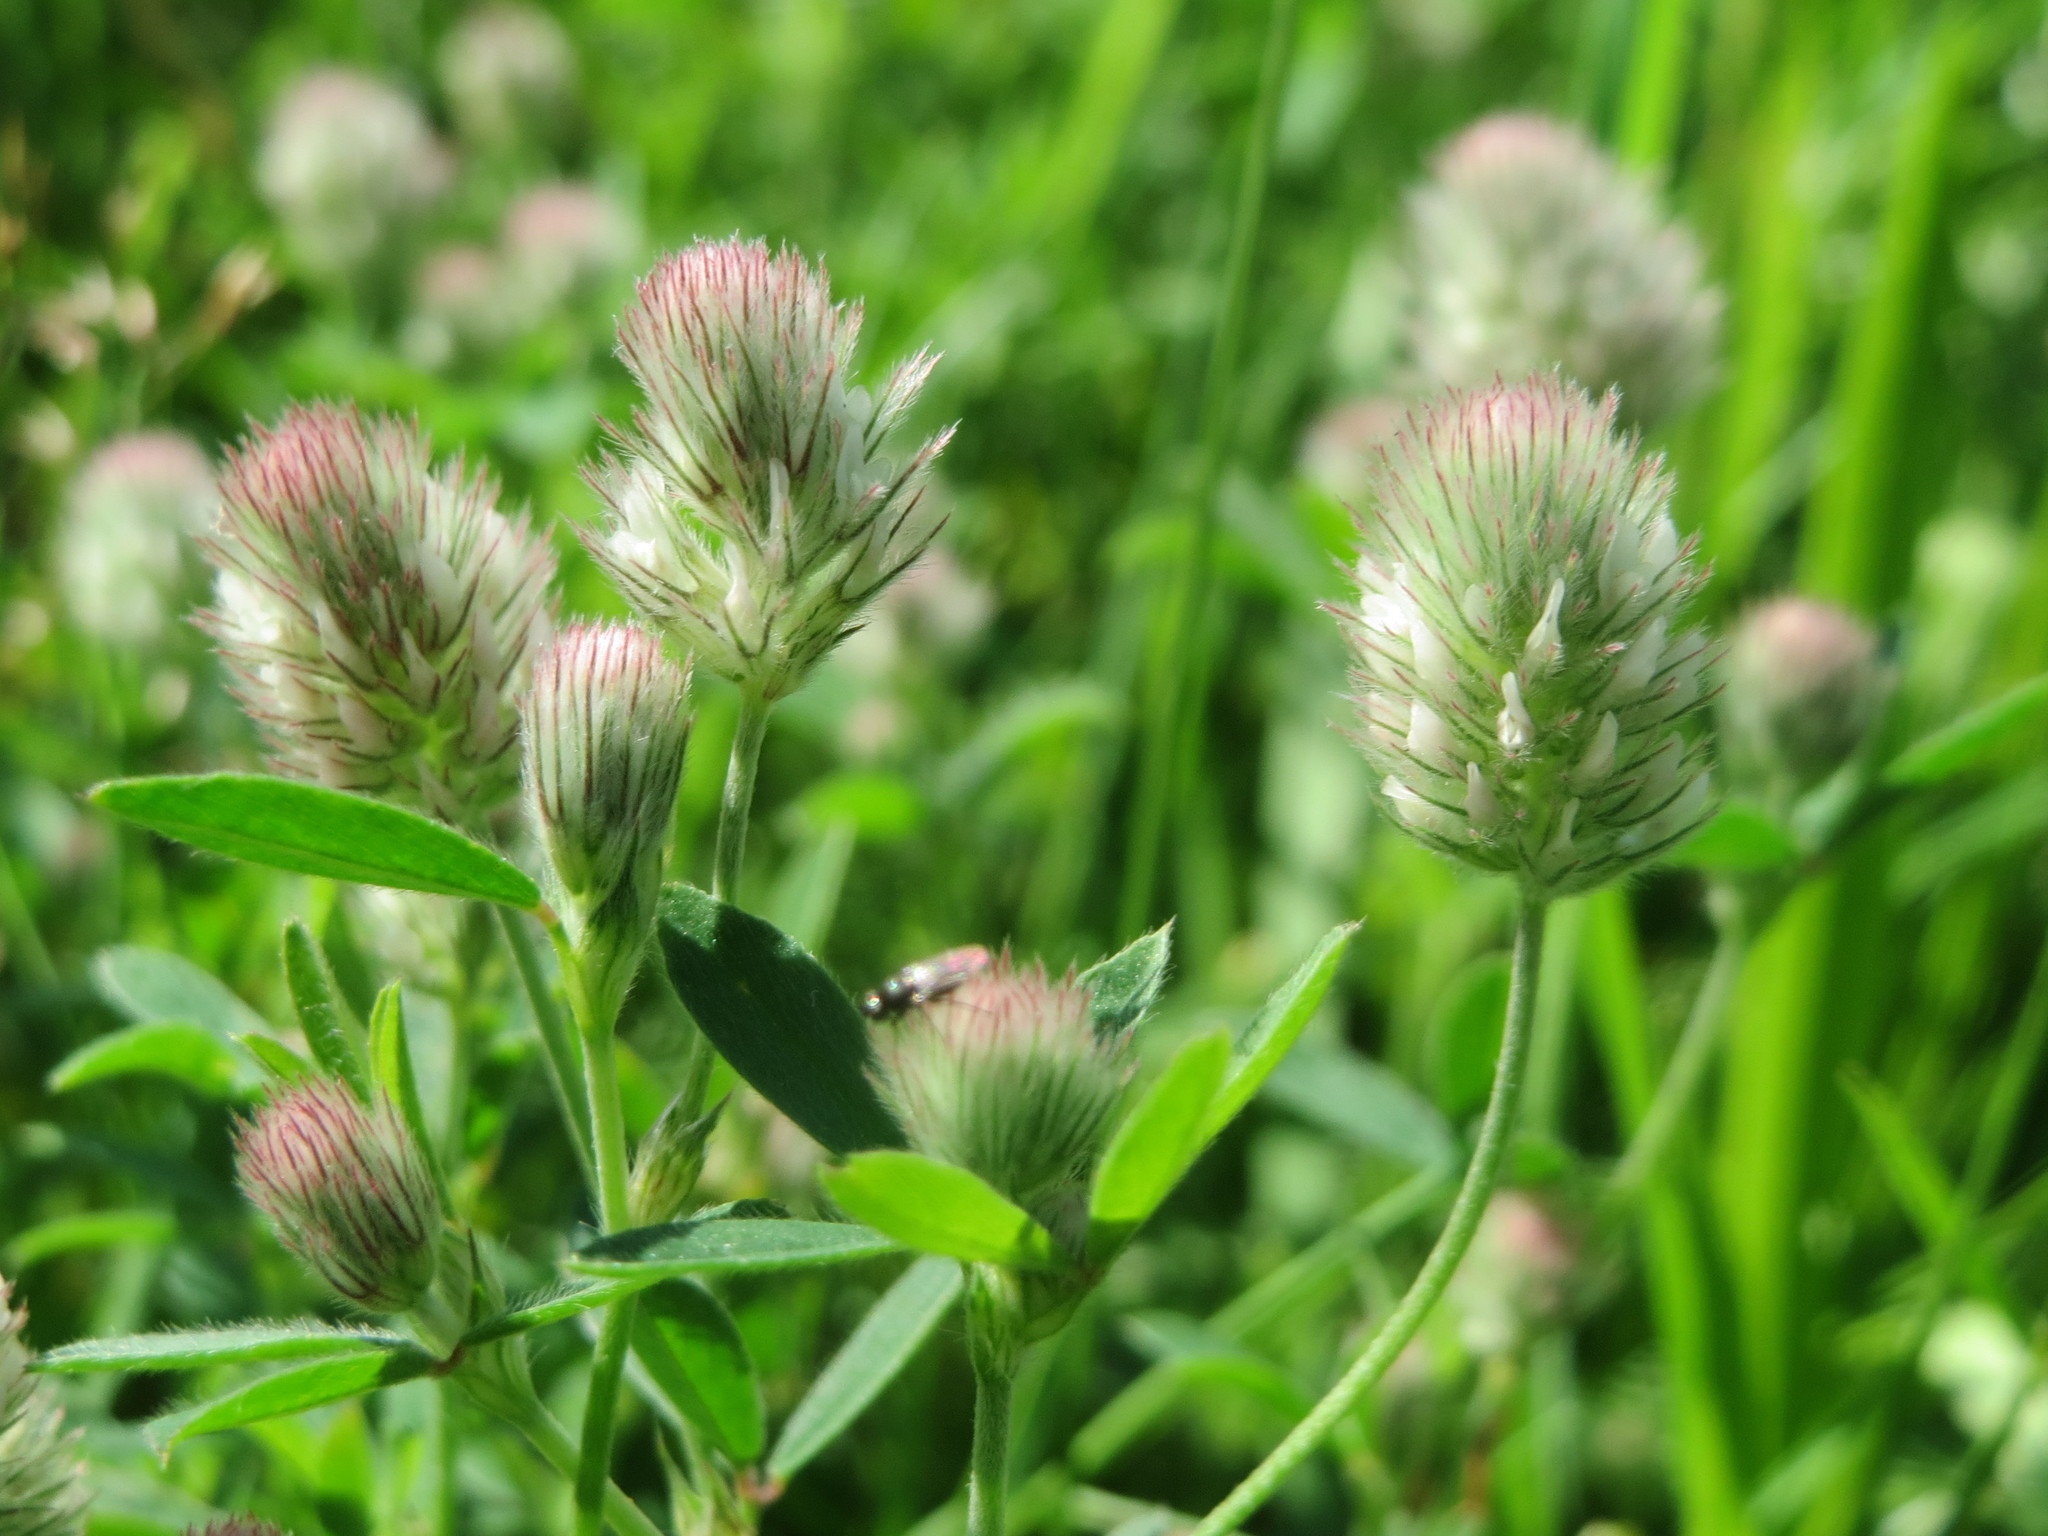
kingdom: Plantae
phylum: Tracheophyta
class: Magnoliopsida
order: Fabales
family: Fabaceae
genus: Trifolium
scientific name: Trifolium arvense
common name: Hare's-foot clover
